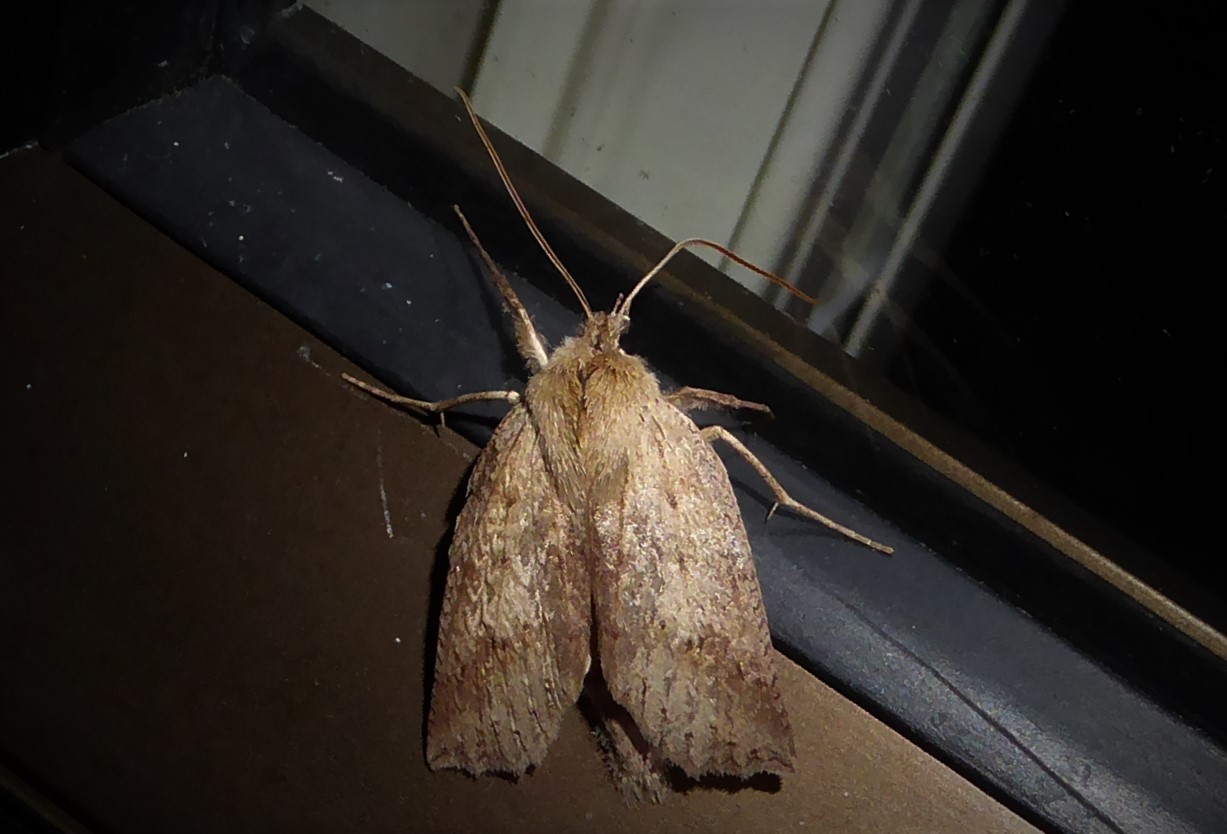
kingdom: Animalia
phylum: Arthropoda
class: Insecta
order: Lepidoptera
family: Geometridae
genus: Declana
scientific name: Declana leptomera
